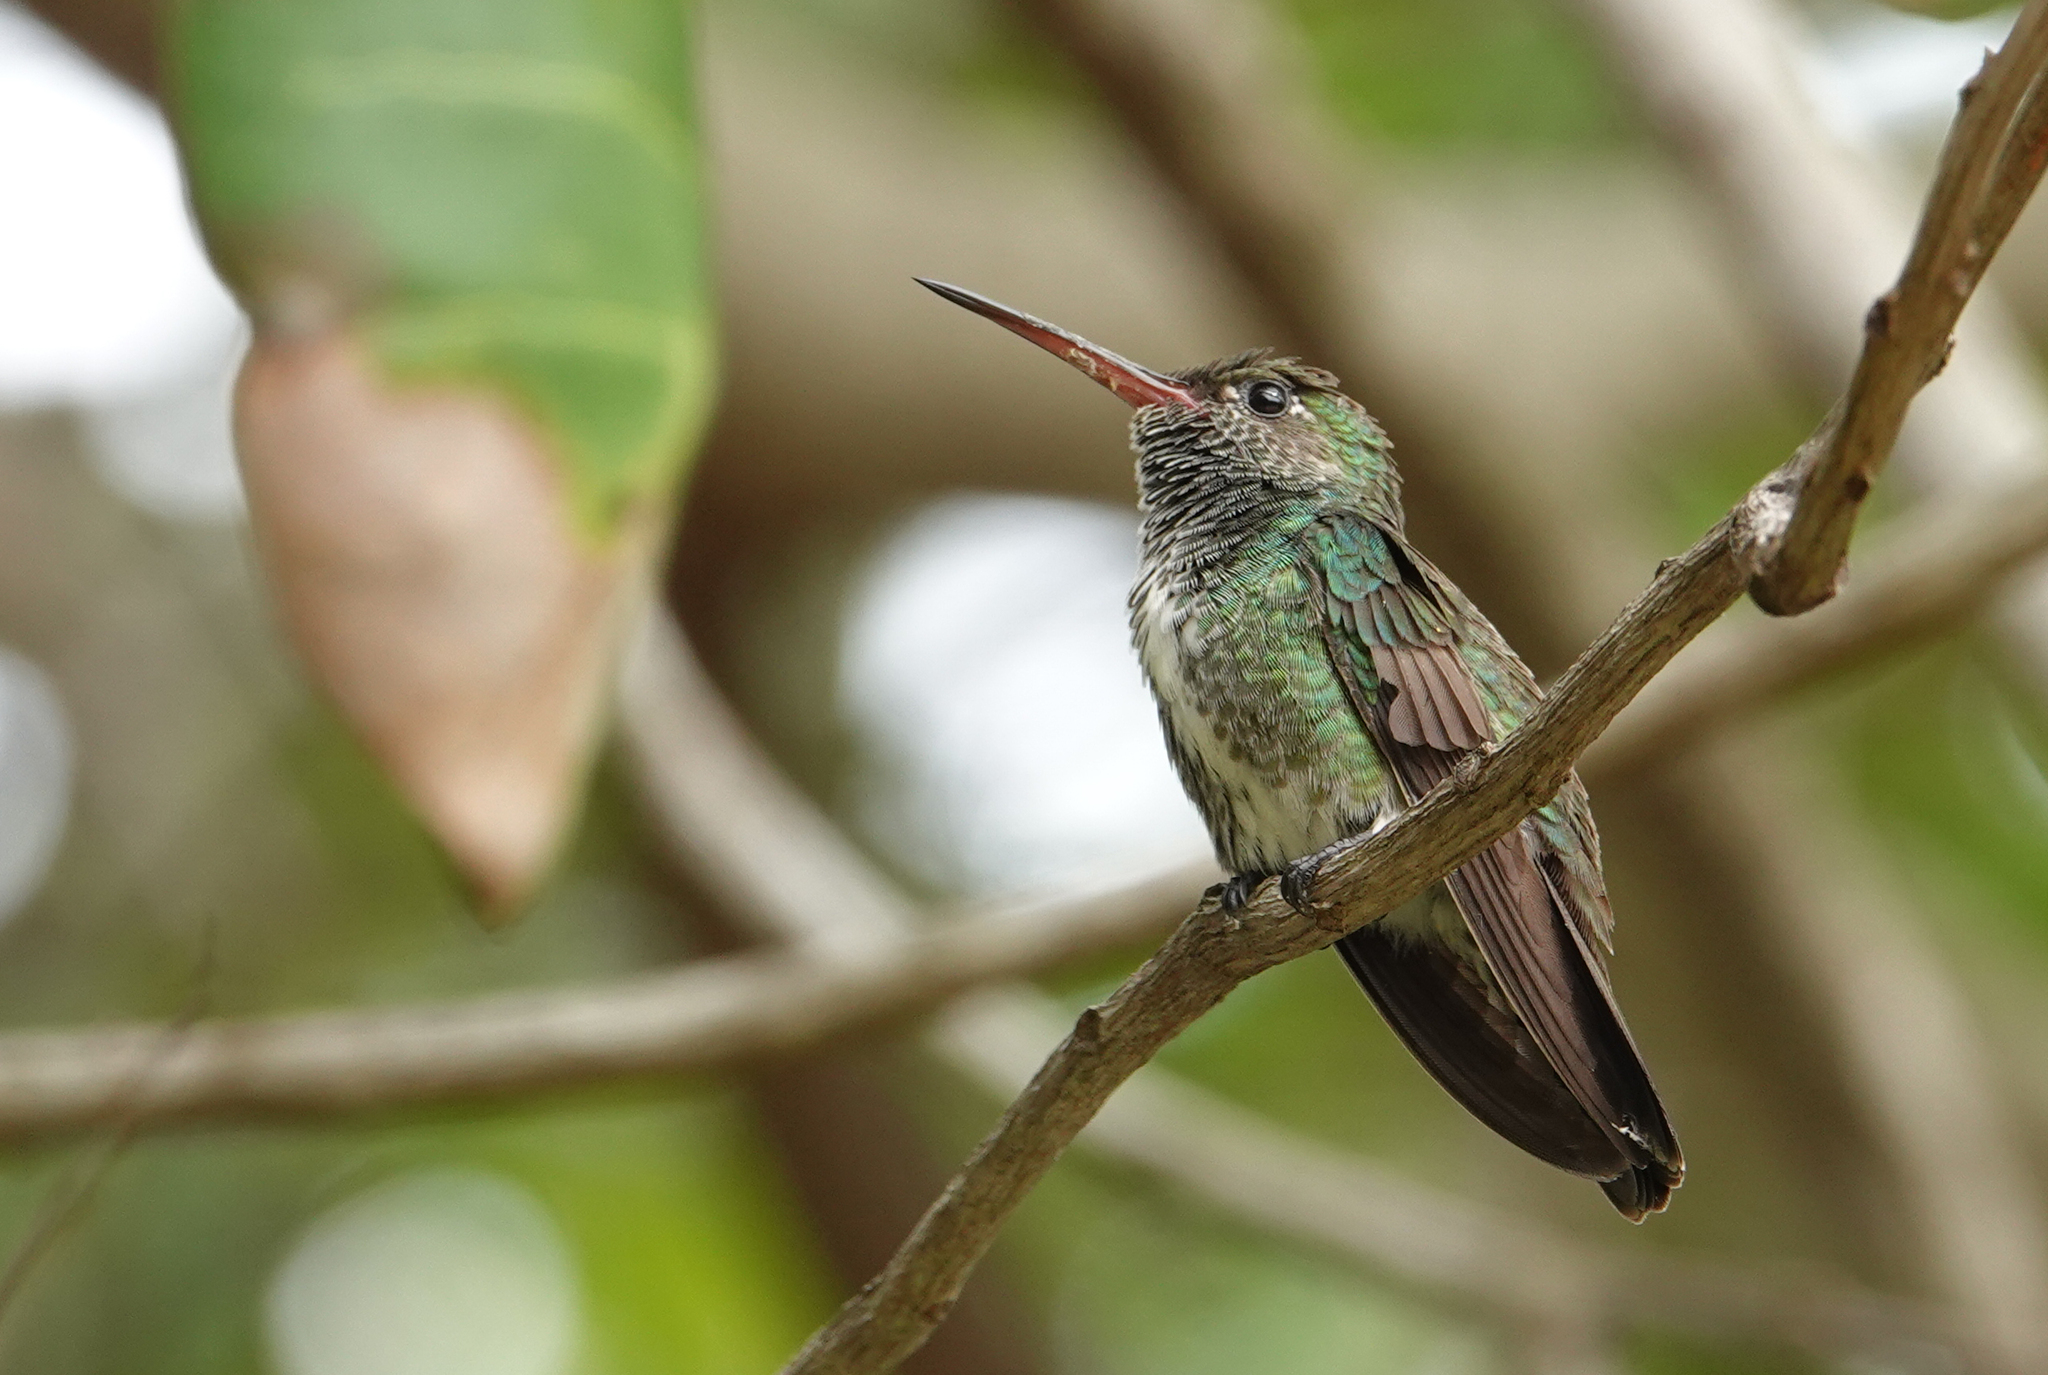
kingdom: Animalia
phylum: Chordata
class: Aves
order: Apodiformes
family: Trochilidae
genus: Chionomesa
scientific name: Chionomesa fimbriata
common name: Glittering-throated emerald
